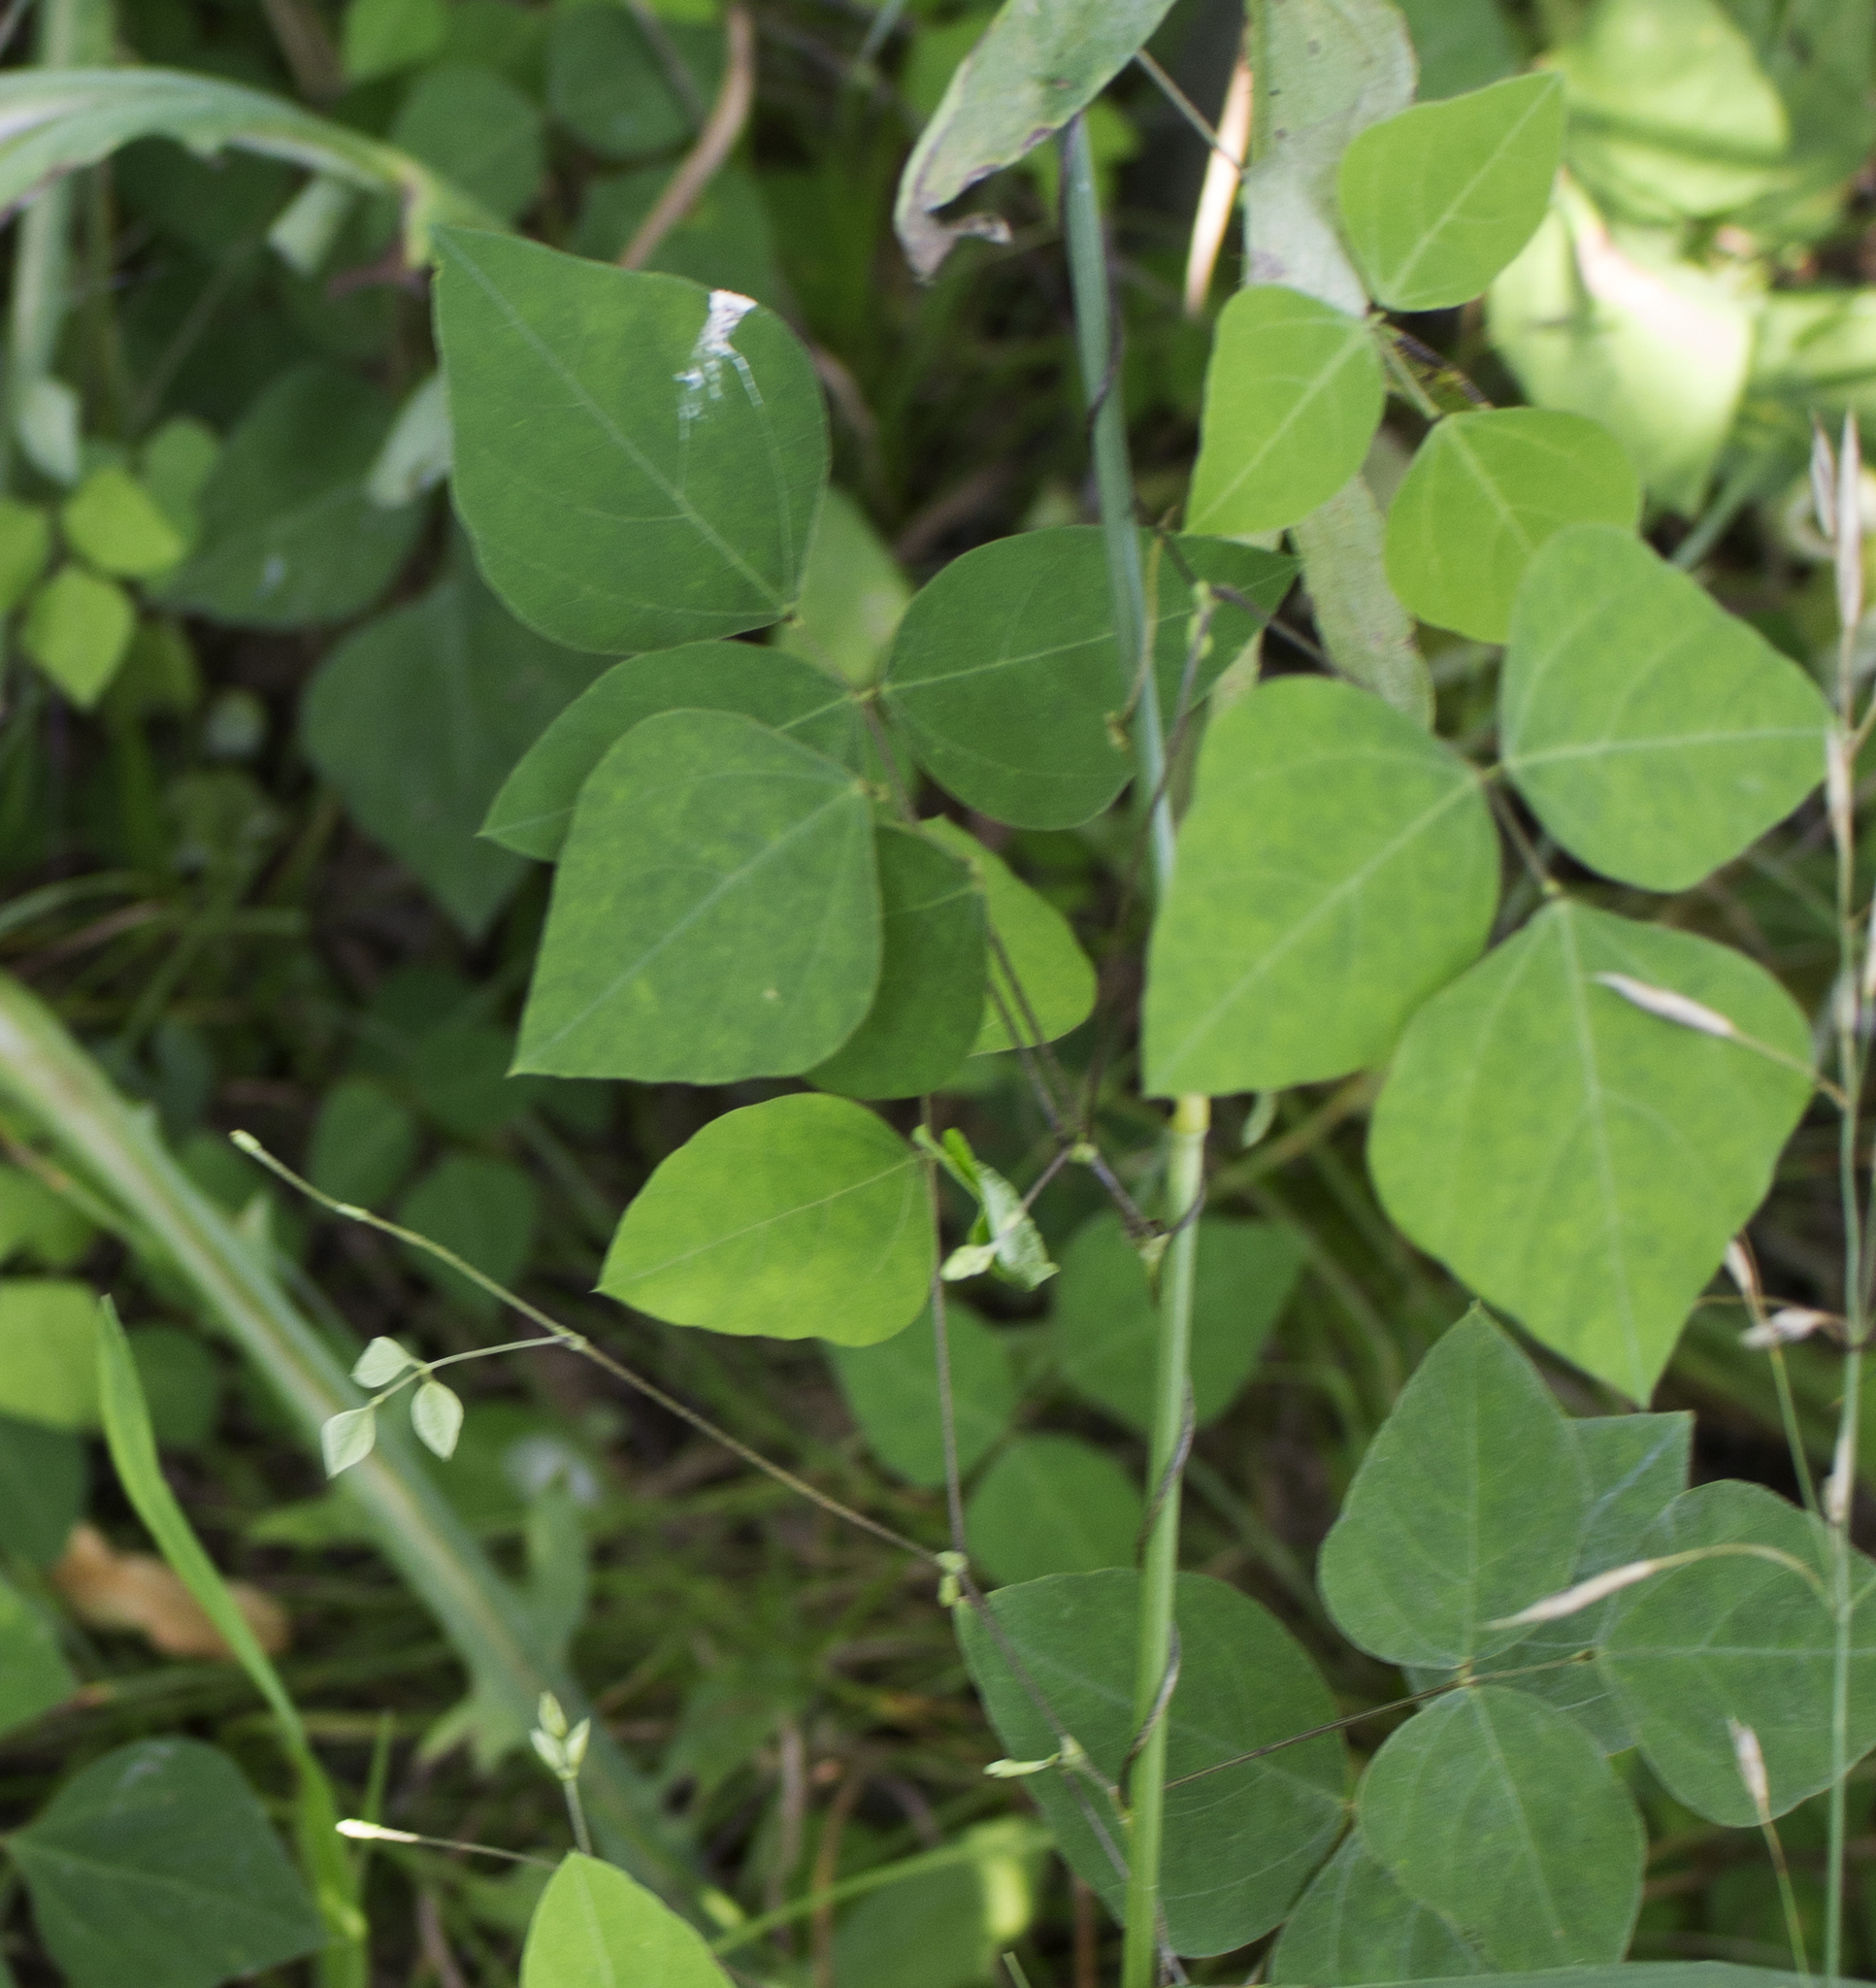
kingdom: Plantae
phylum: Tracheophyta
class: Magnoliopsida
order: Fabales
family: Fabaceae
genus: Amphicarpaea
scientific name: Amphicarpaea bracteata
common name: American hog peanut
